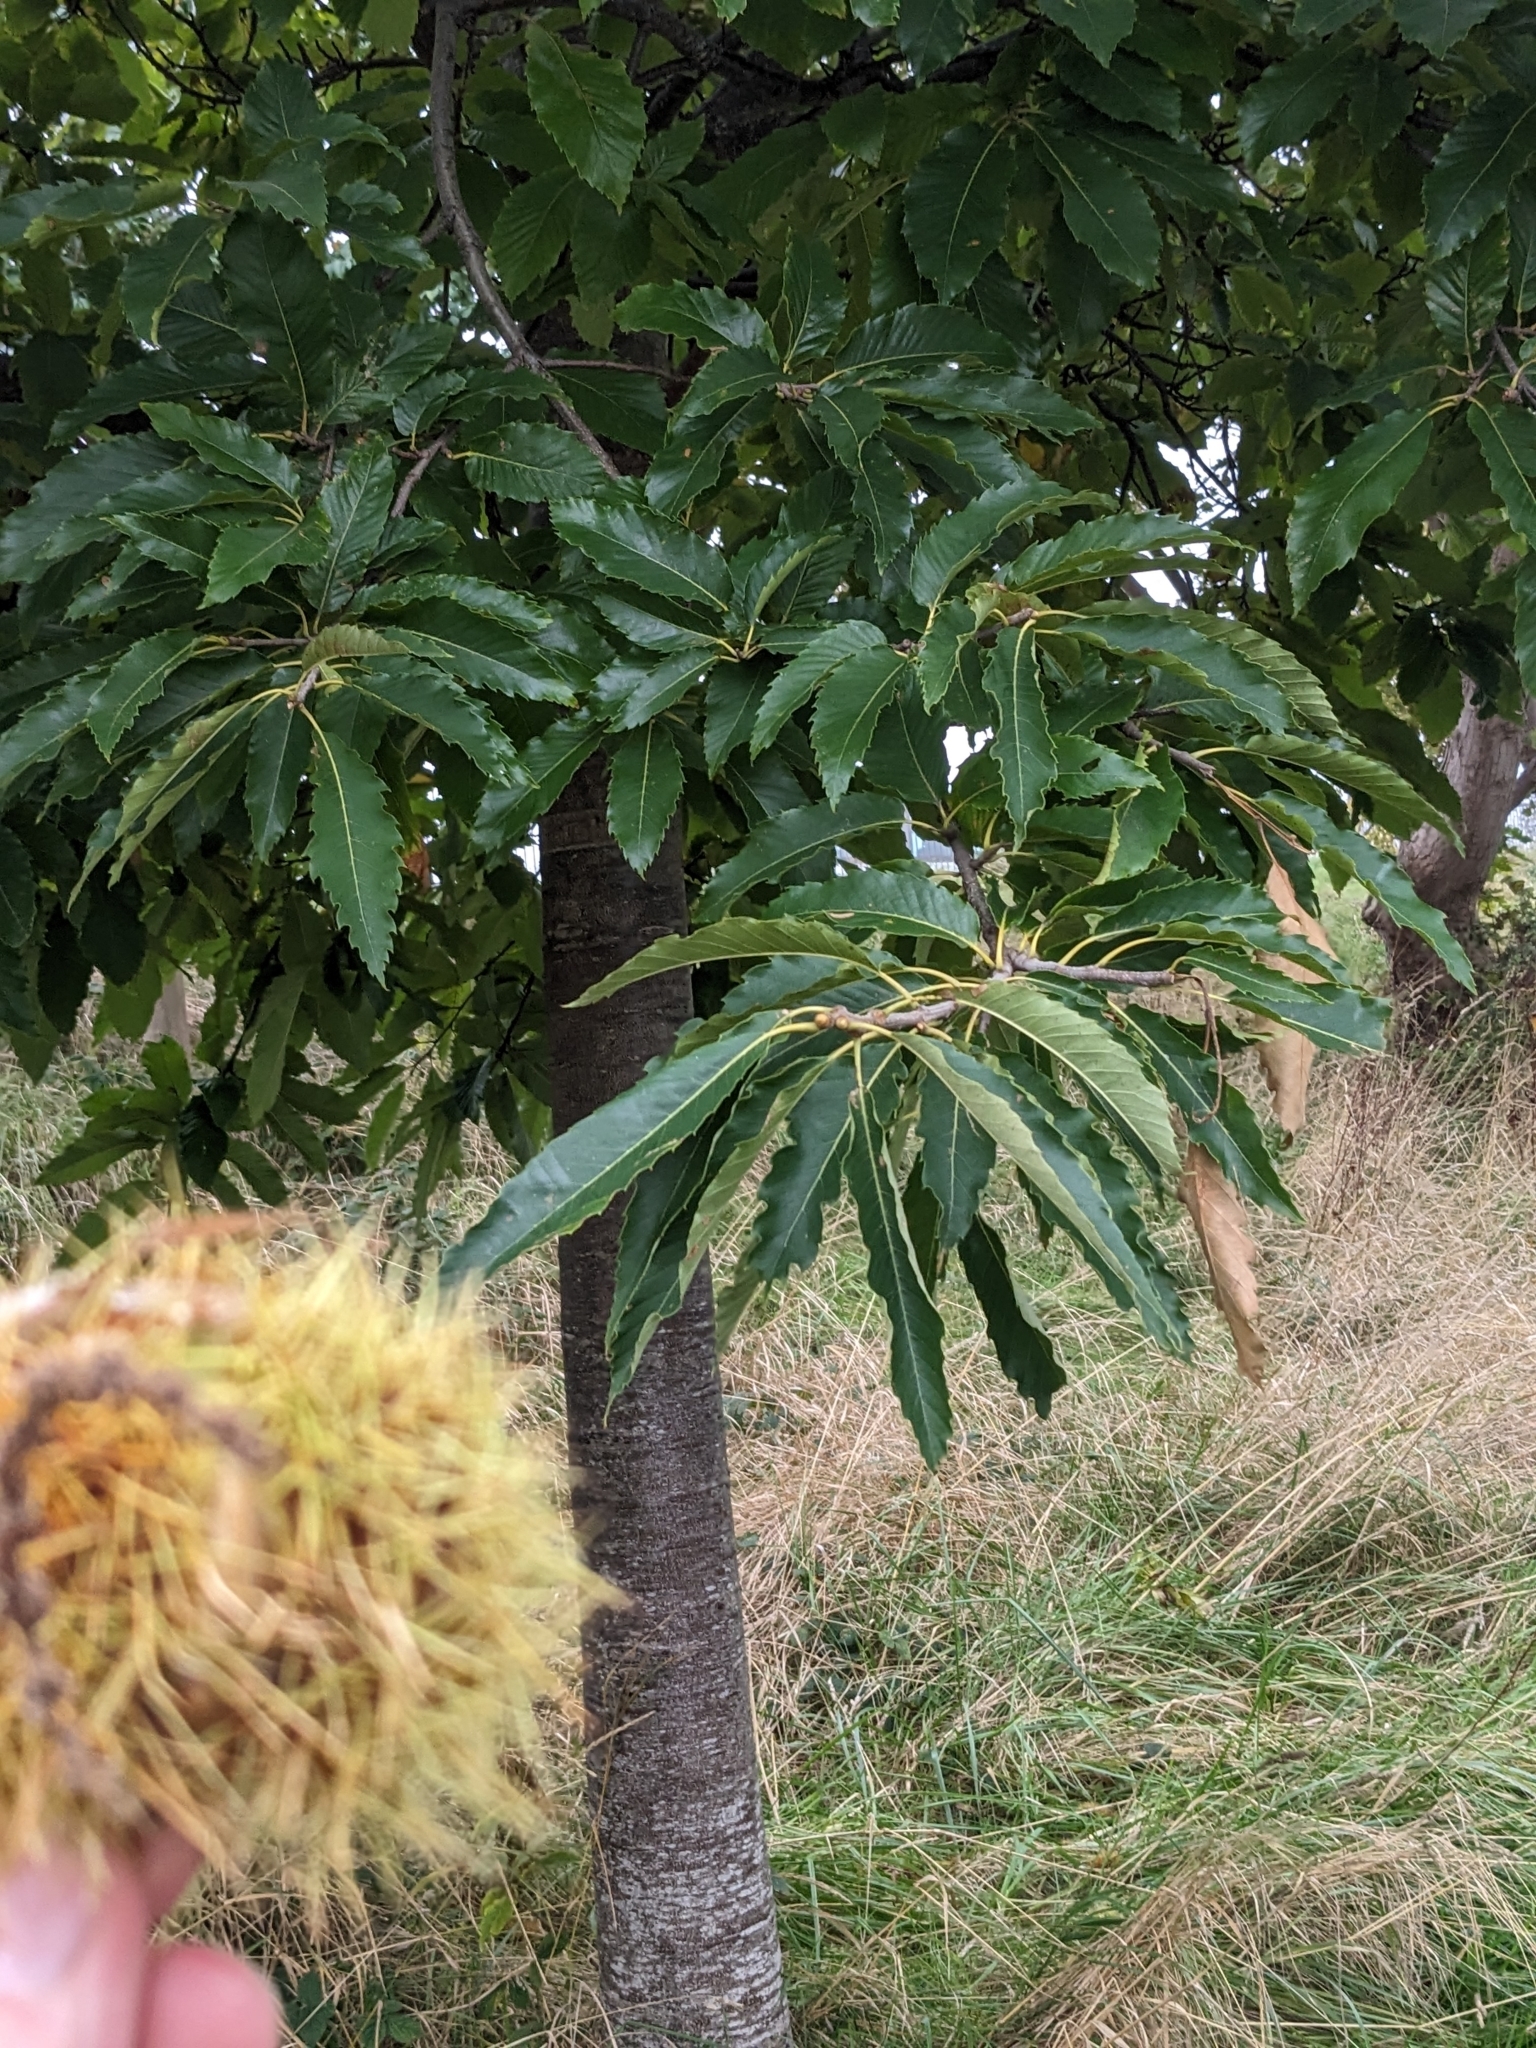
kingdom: Plantae
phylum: Tracheophyta
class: Magnoliopsida
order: Fagales
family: Fagaceae
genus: Castanea
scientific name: Castanea sativa
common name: Sweet chestnut
